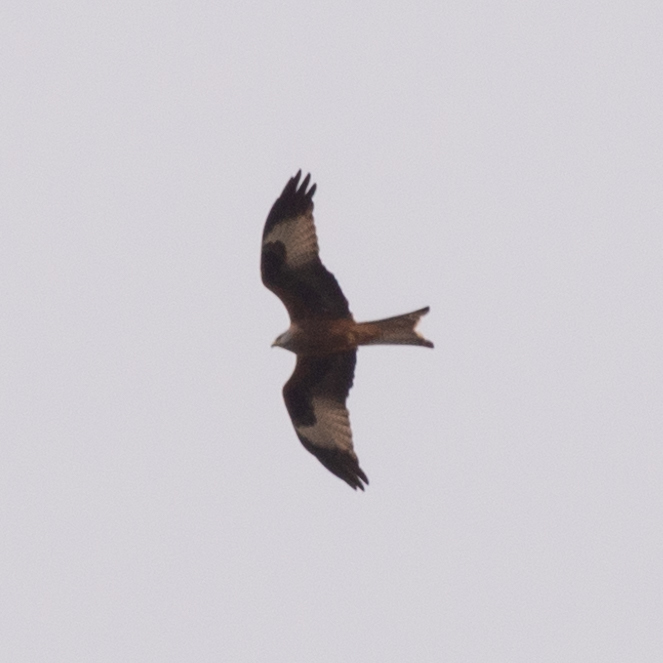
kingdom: Animalia
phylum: Chordata
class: Aves
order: Accipitriformes
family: Accipitridae
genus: Milvus
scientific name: Milvus milvus
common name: Red kite
